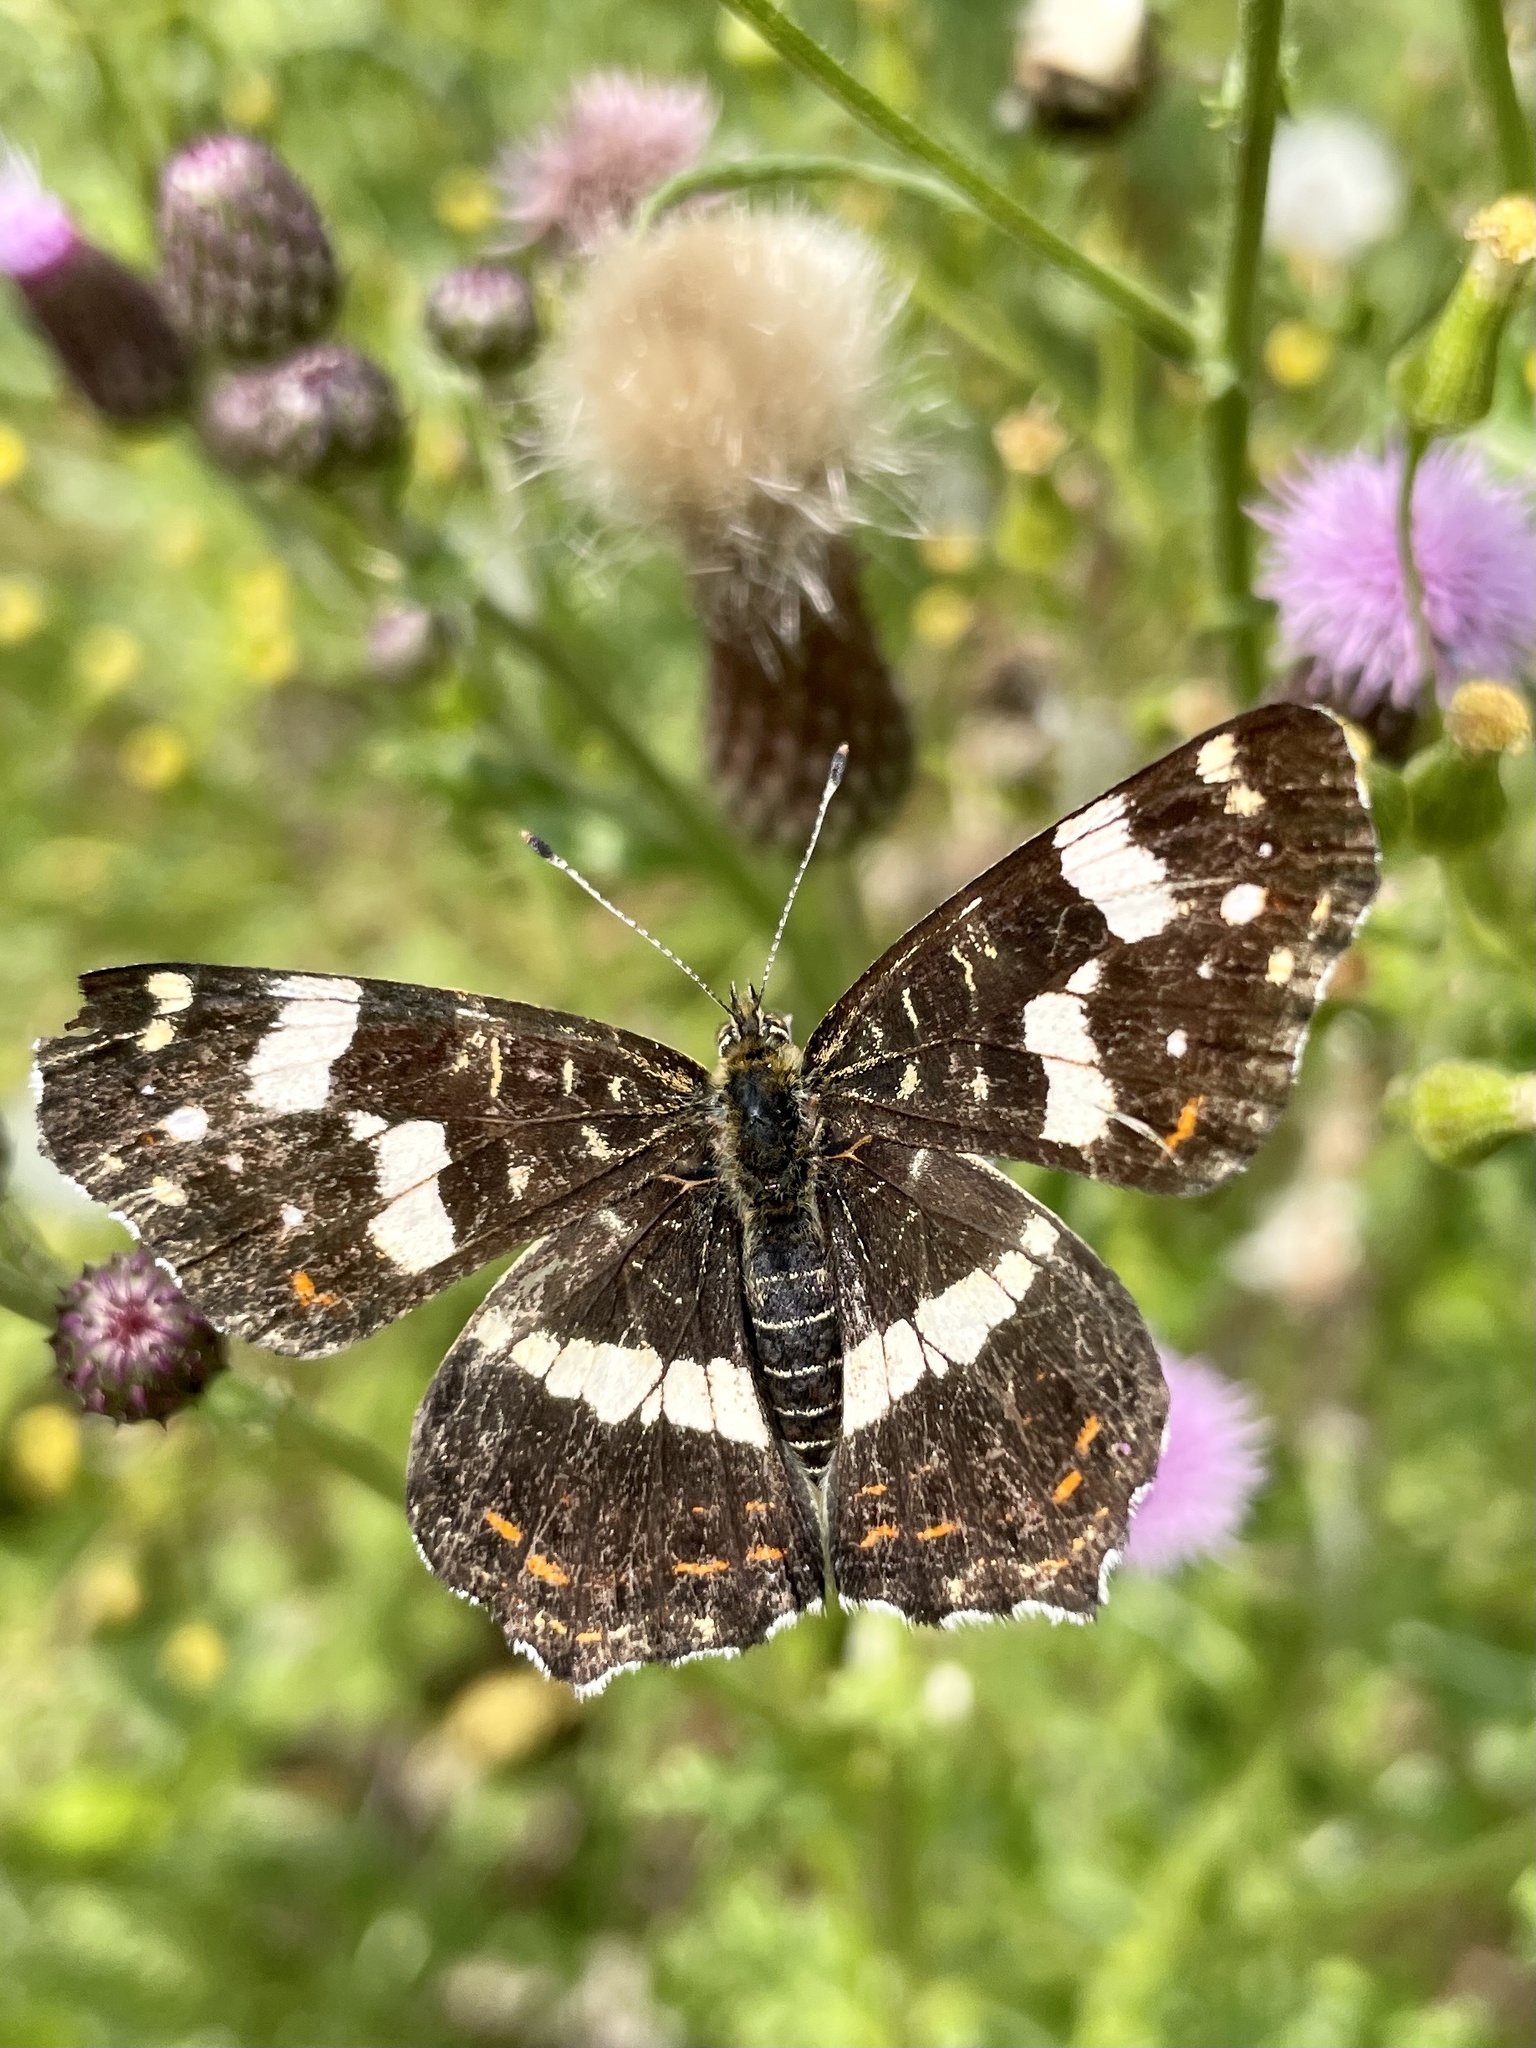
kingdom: Animalia
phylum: Arthropoda
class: Insecta
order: Lepidoptera
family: Nymphalidae
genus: Araschnia
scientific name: Araschnia levana
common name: Map butterfly
